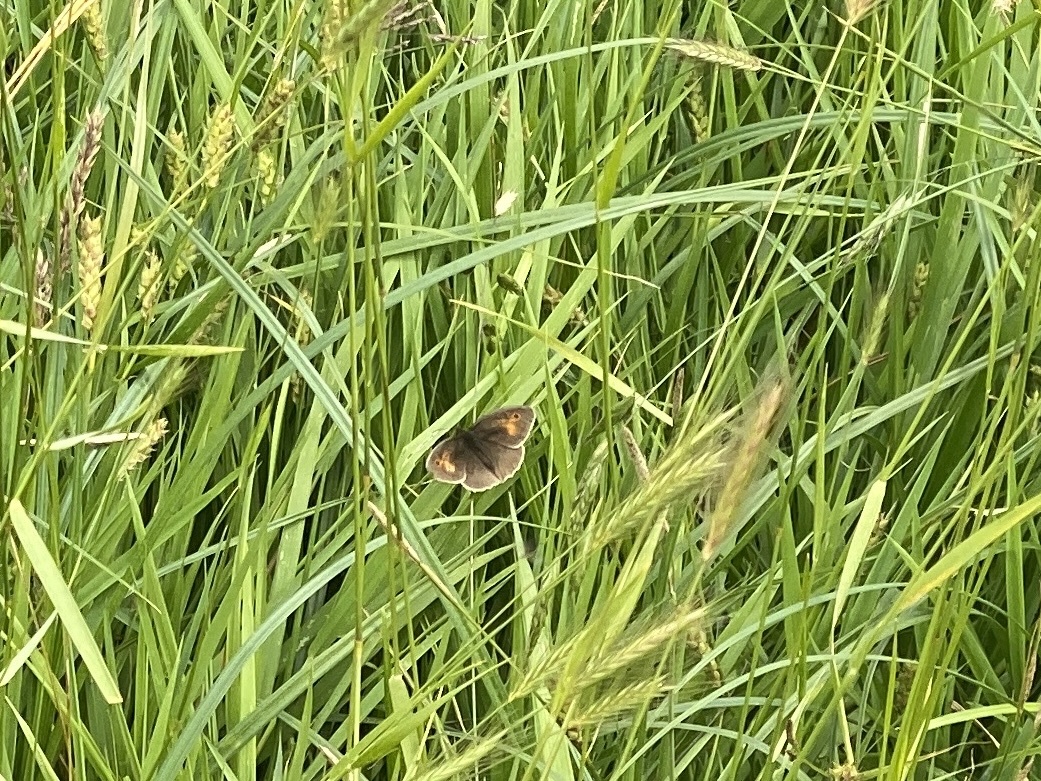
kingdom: Animalia
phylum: Arthropoda
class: Insecta
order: Lepidoptera
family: Nymphalidae
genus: Maniola
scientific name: Maniola jurtina
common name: Meadow brown
